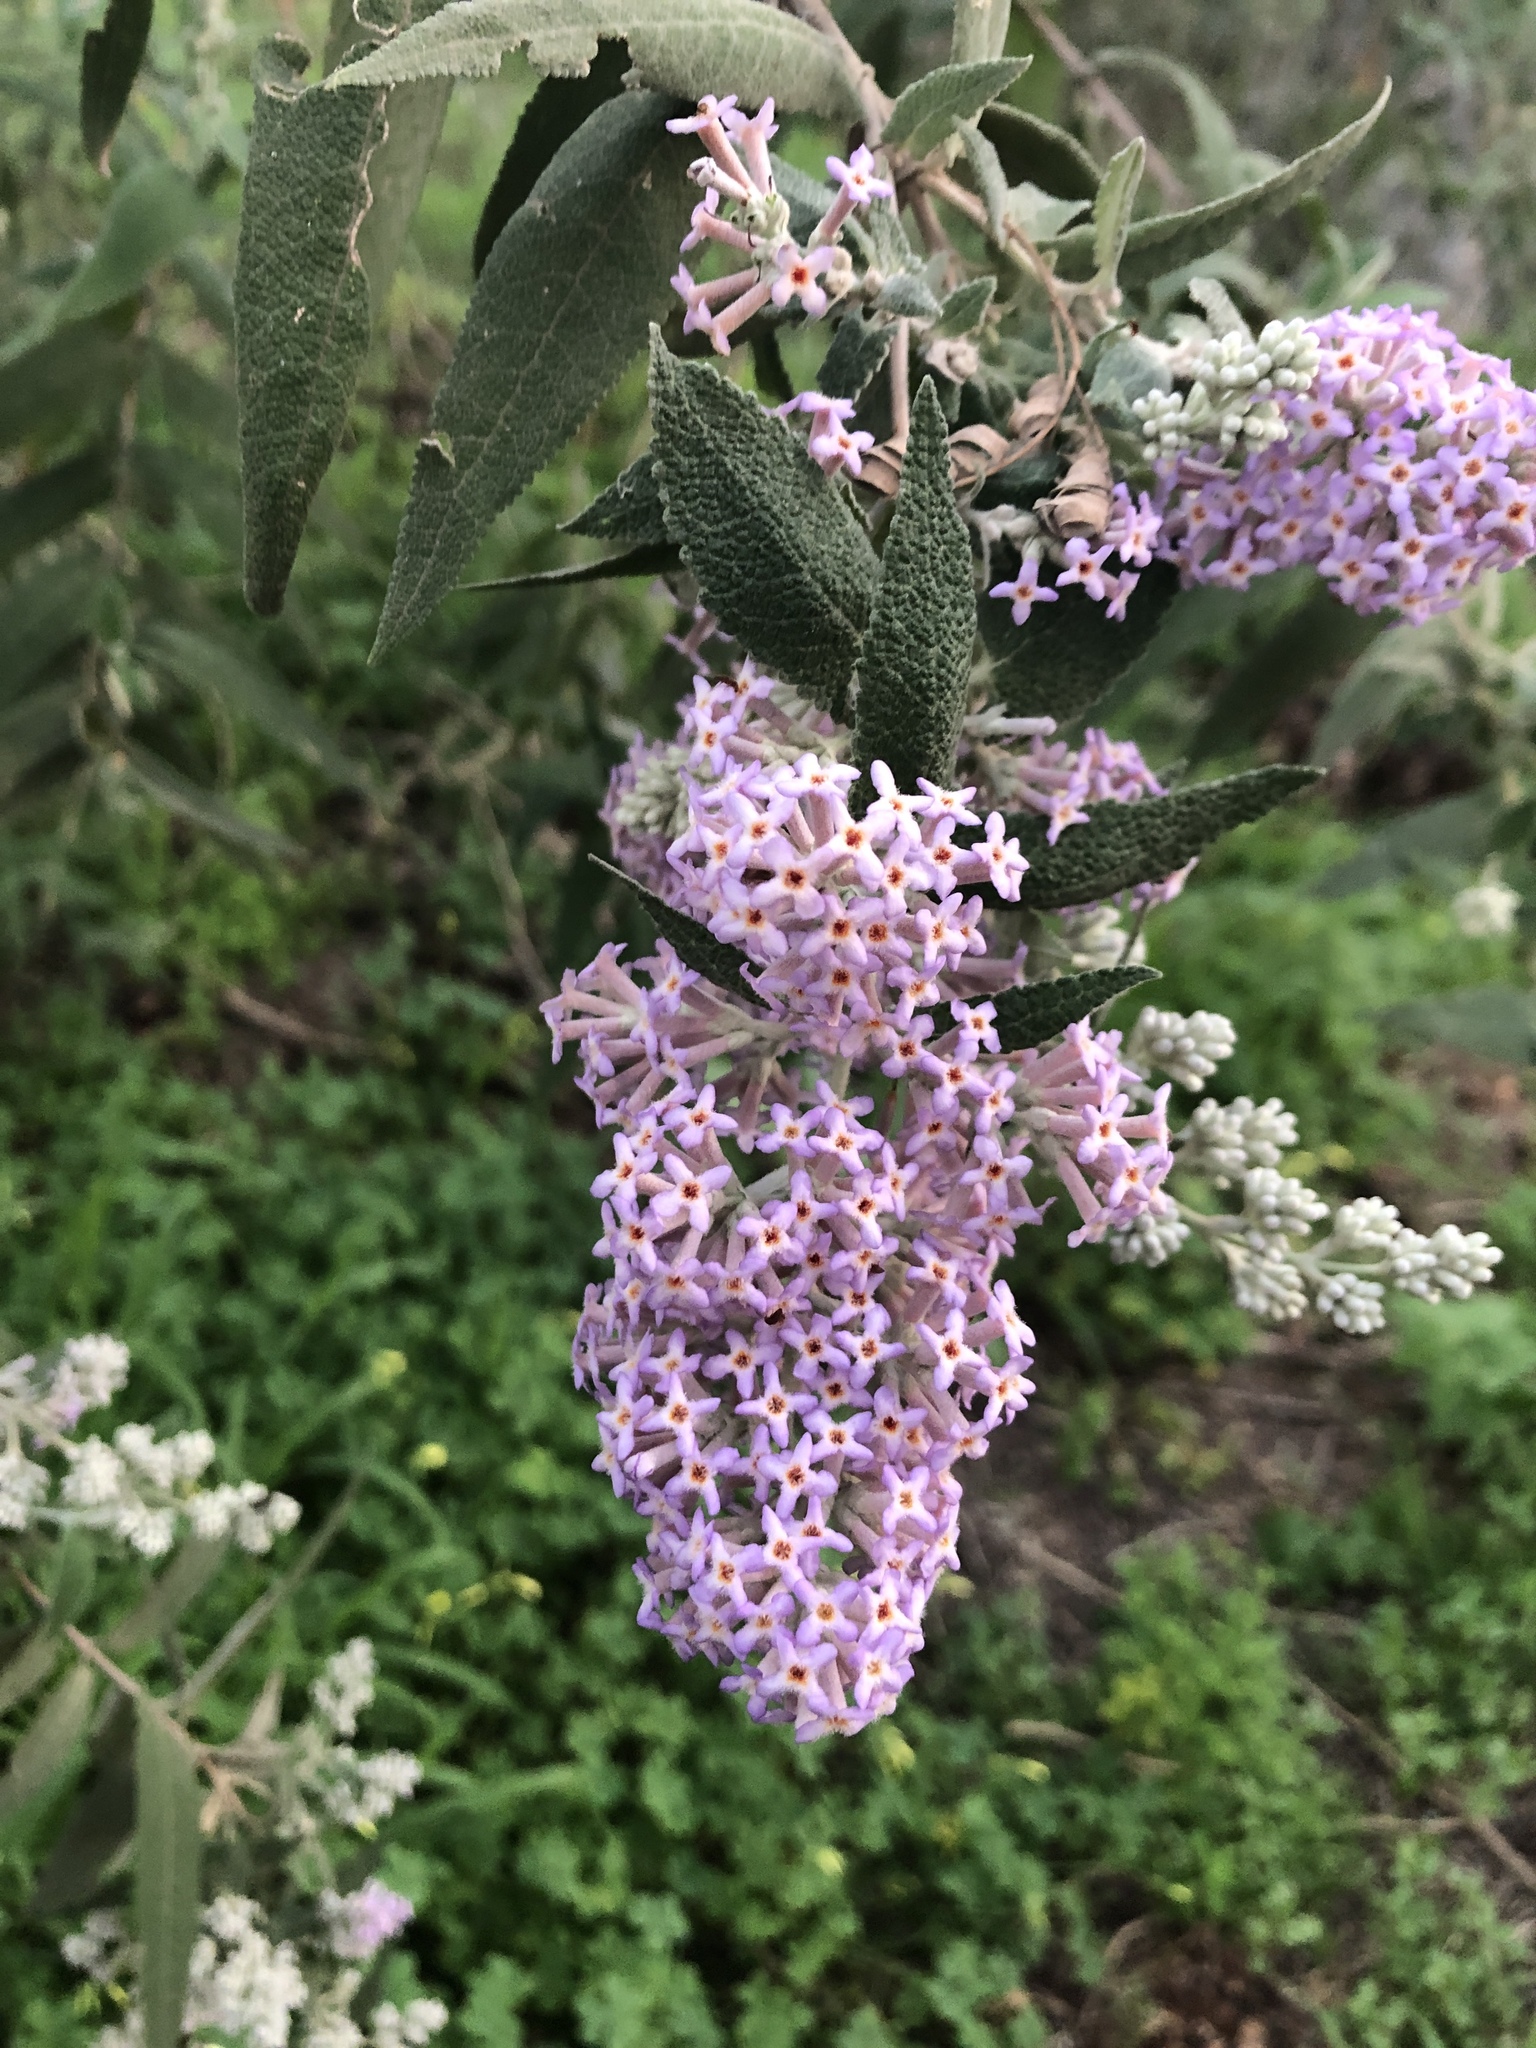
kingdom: Plantae
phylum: Tracheophyta
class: Magnoliopsida
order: Lamiales
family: Scrophulariaceae
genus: Buddleja
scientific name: Buddleja salviifolia
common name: Sagewood
